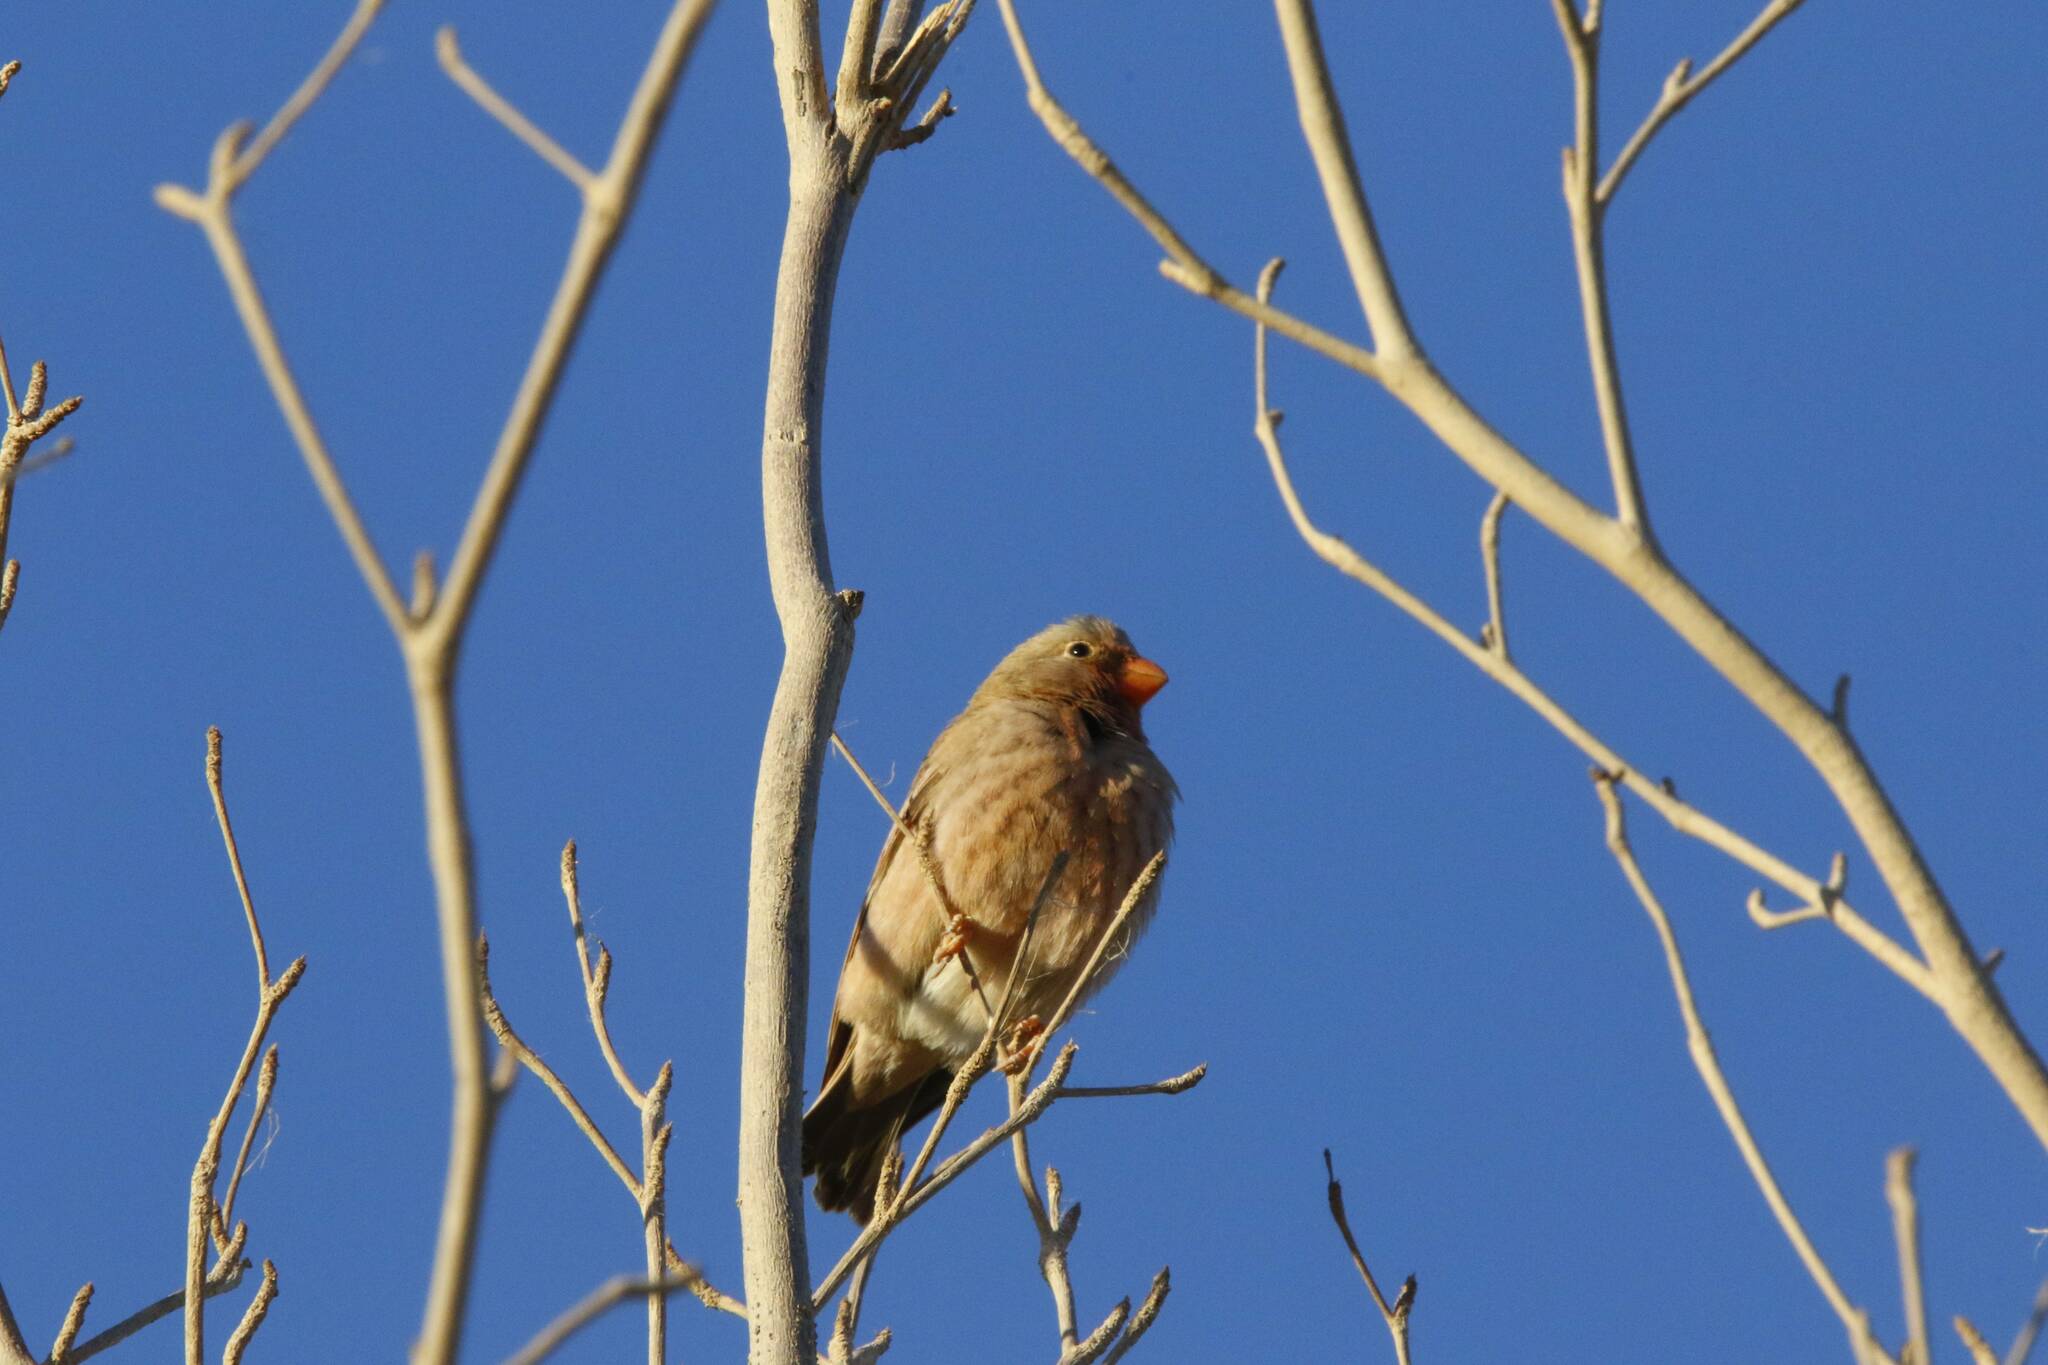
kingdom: Animalia
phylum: Chordata
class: Aves
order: Passeriformes
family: Fringillidae
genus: Bucanetes
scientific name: Bucanetes githagineus
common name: Trumpeter finch
